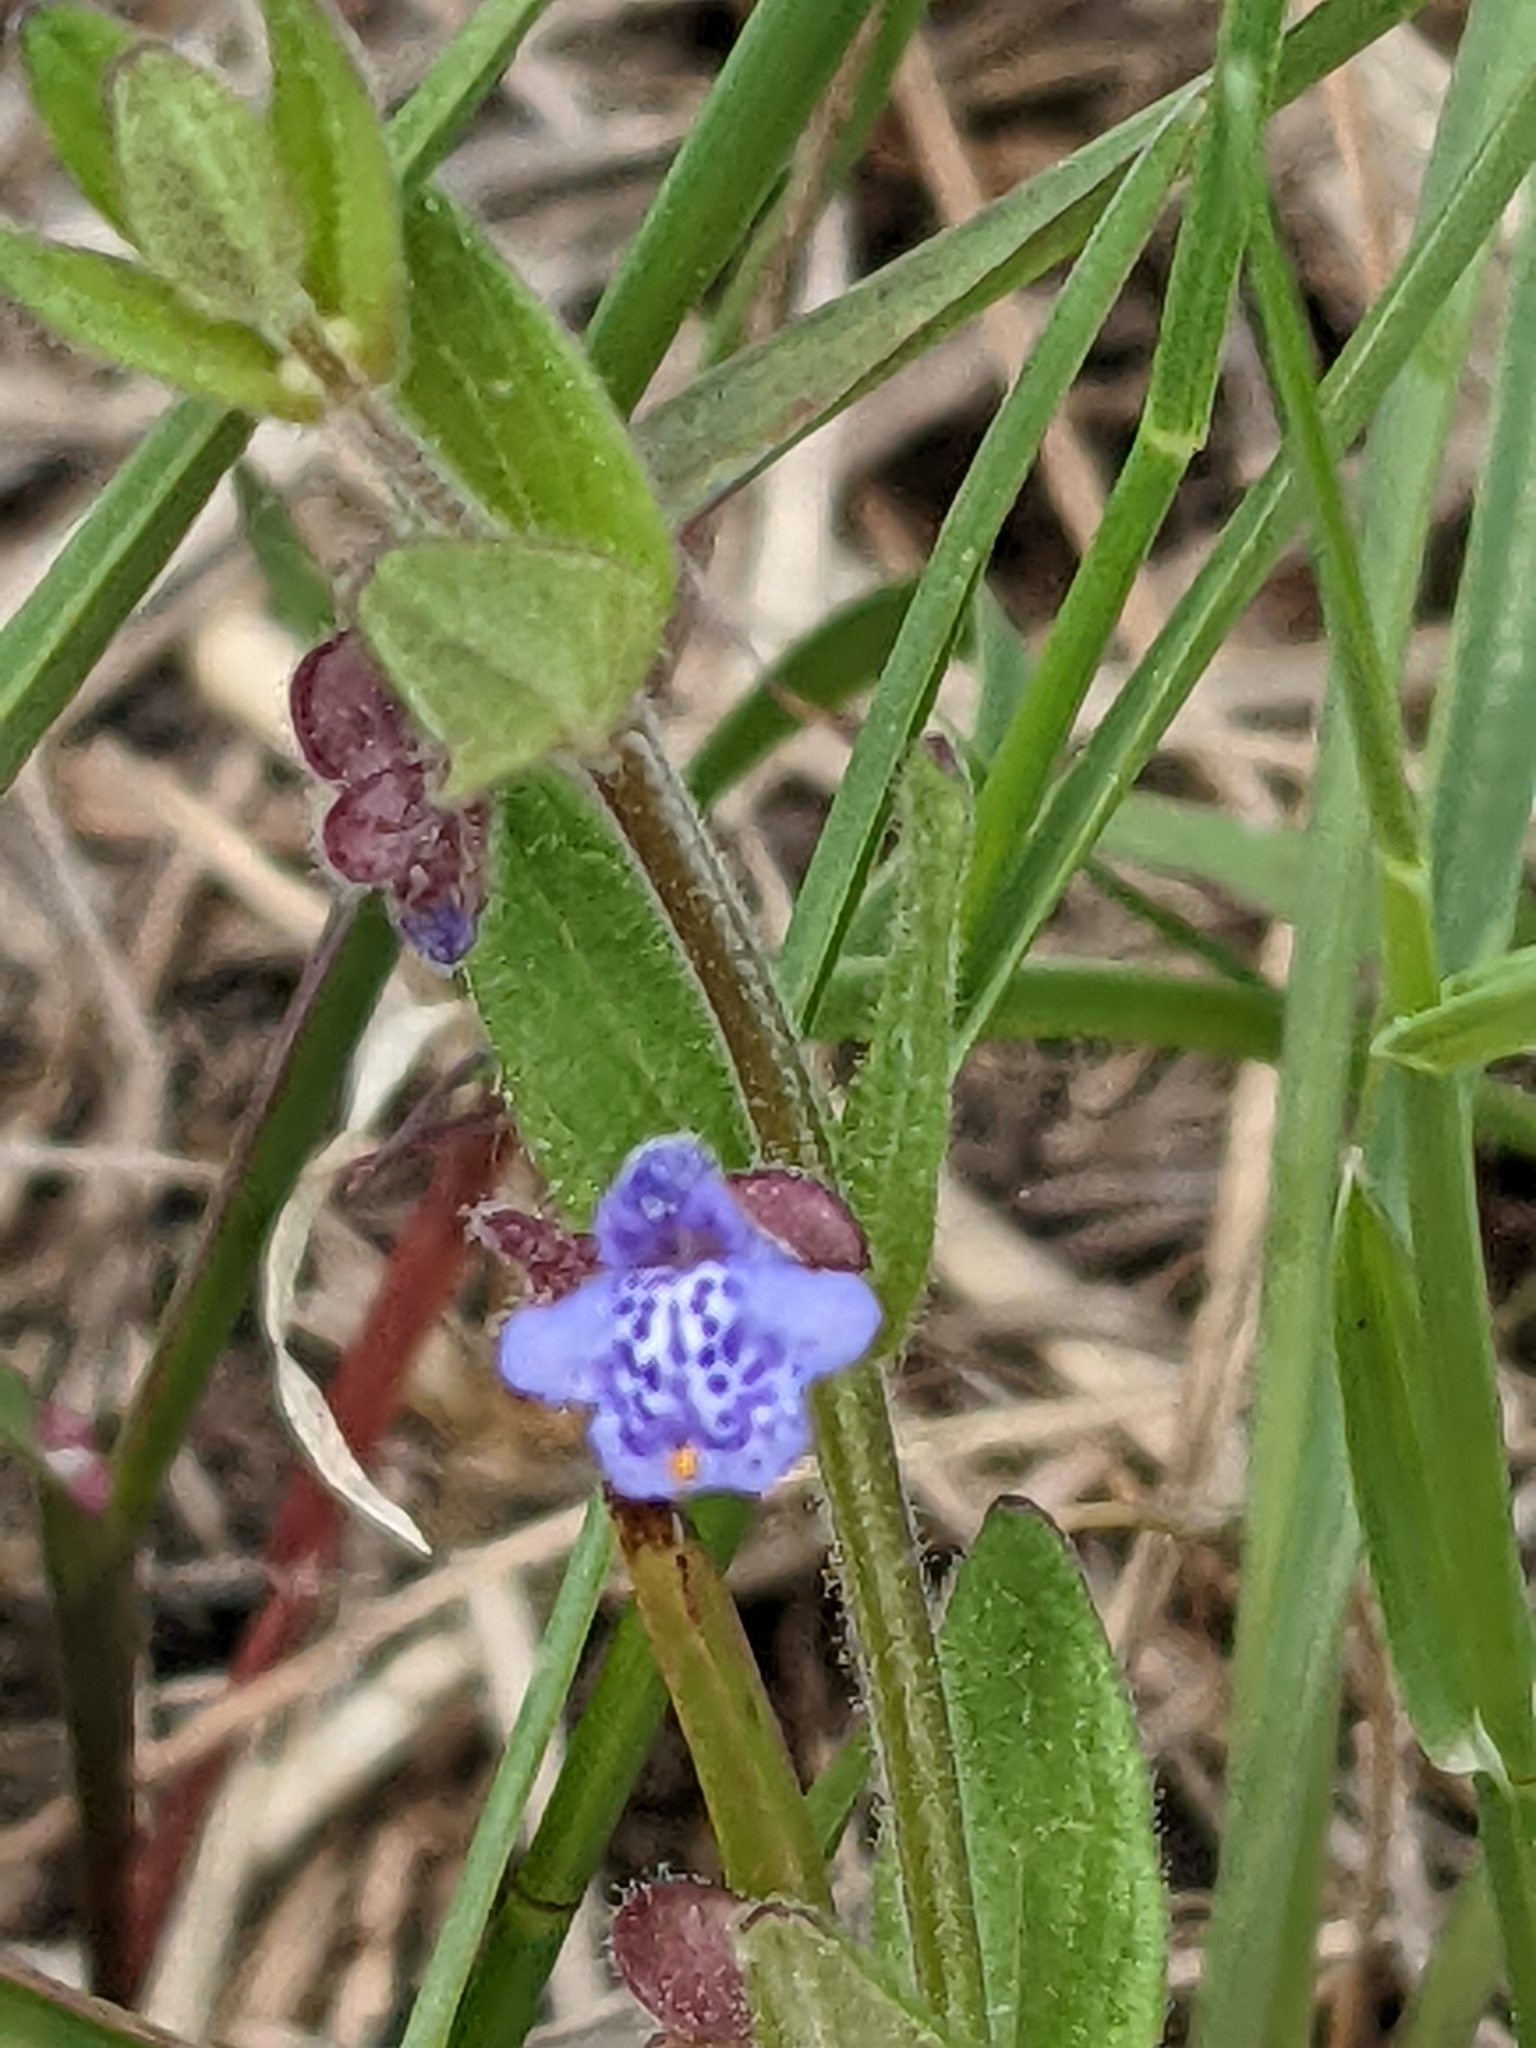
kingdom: Plantae
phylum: Tracheophyta
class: Magnoliopsida
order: Lamiales
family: Lamiaceae
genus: Scutellaria
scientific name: Scutellaria parvula
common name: Little scullcap
